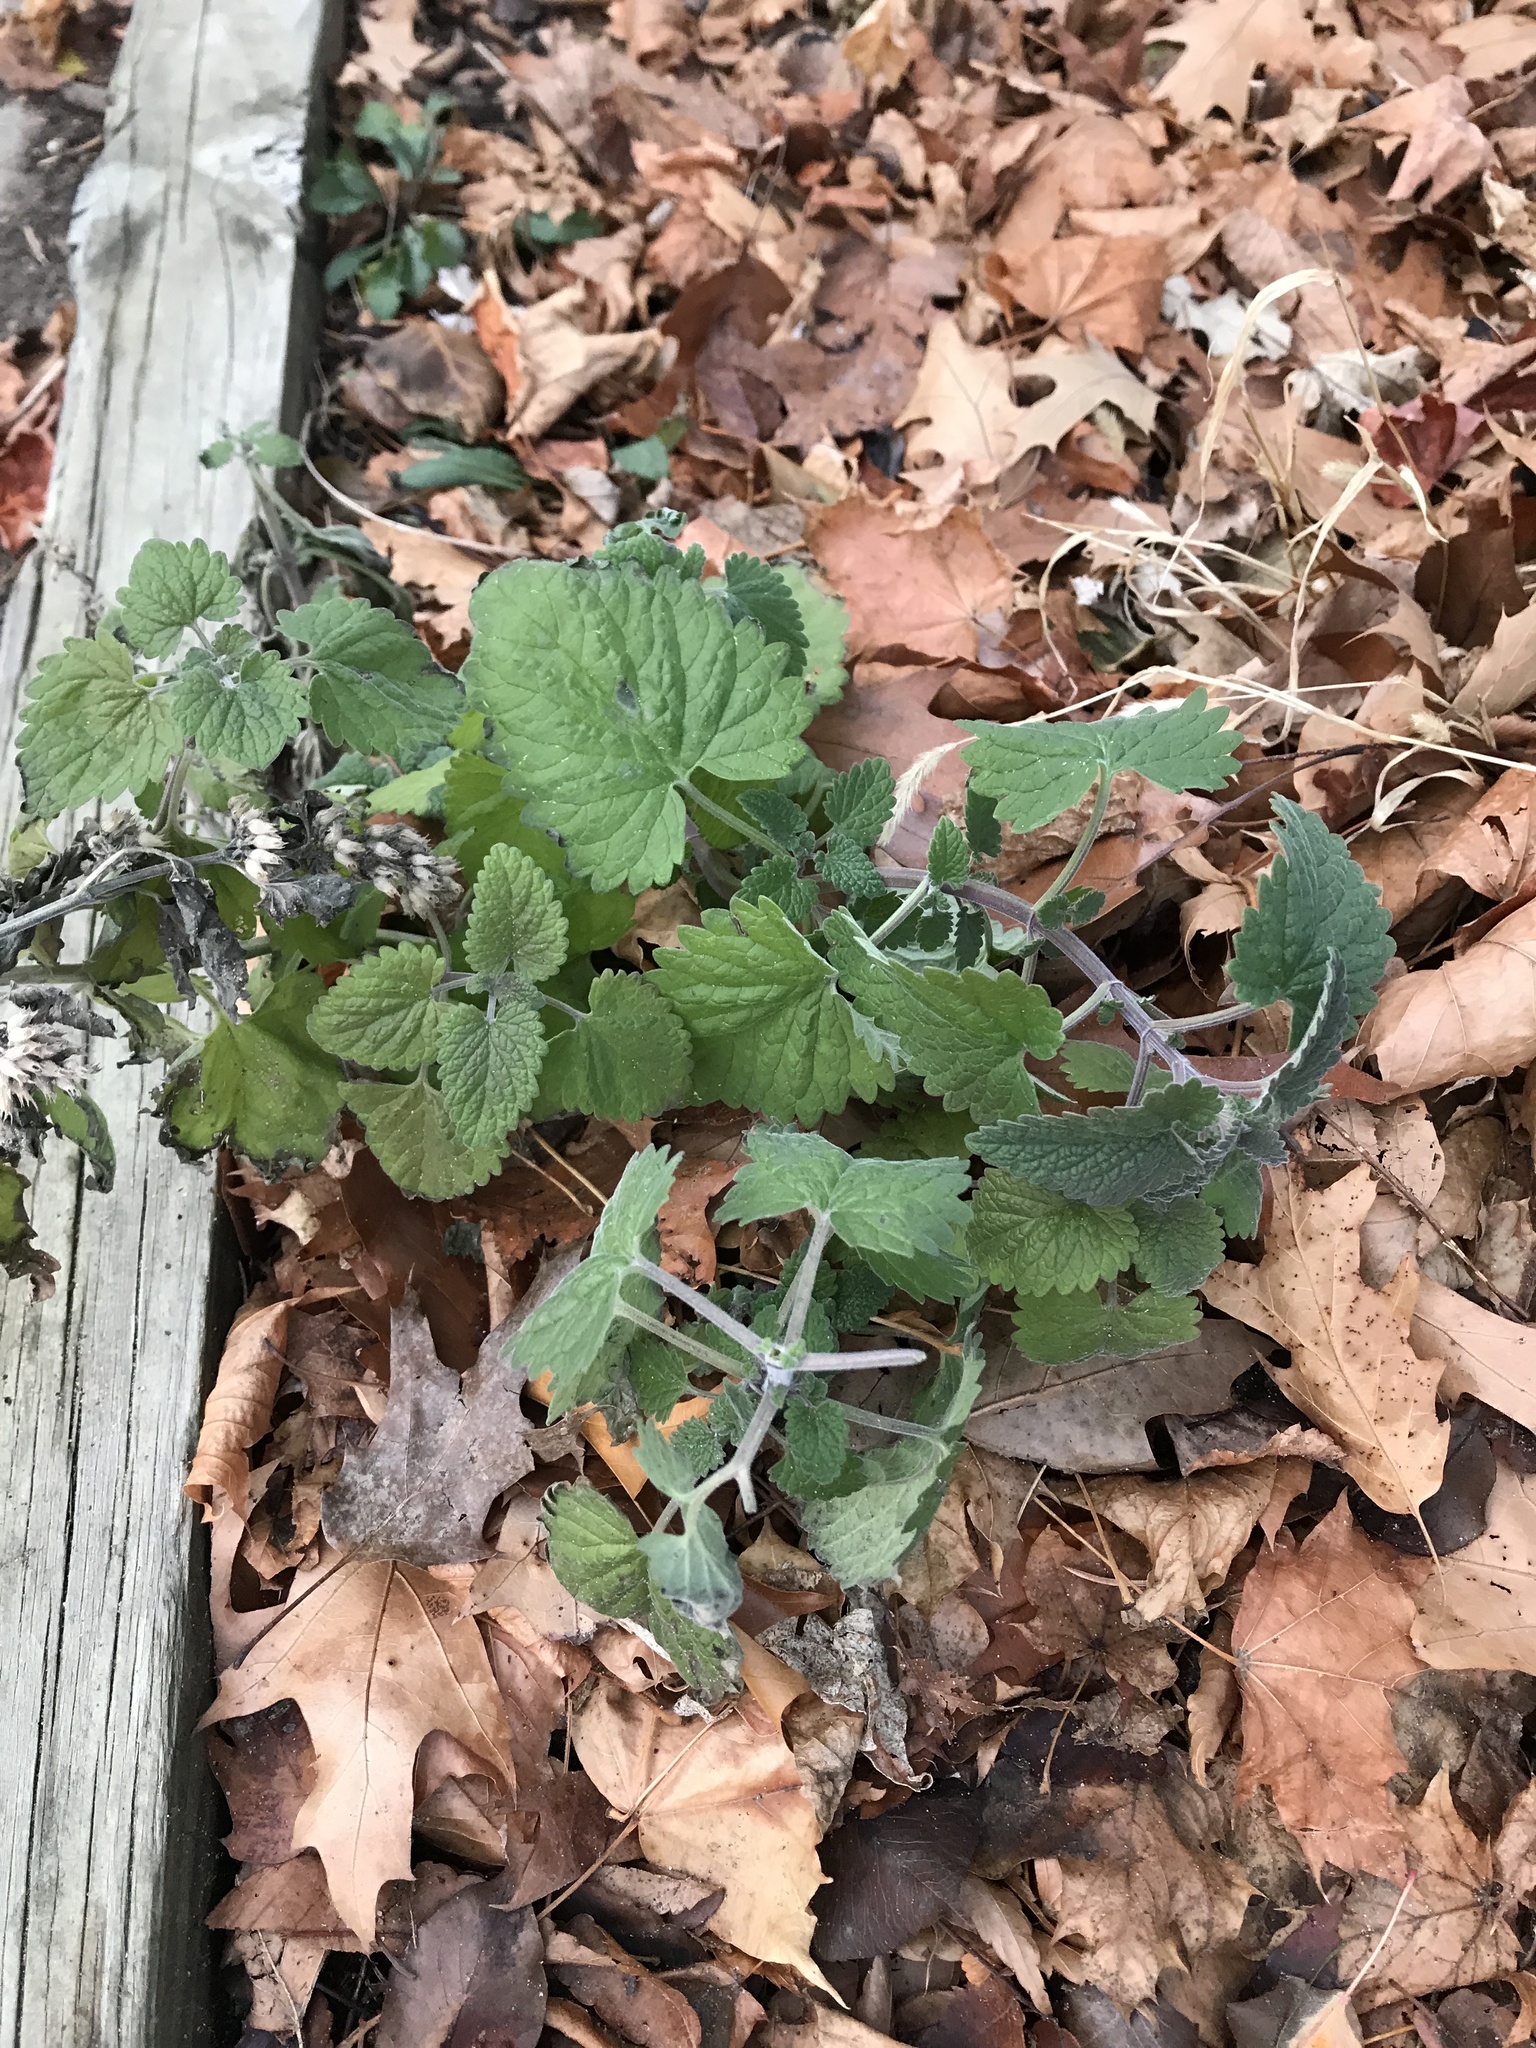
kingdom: Plantae
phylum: Tracheophyta
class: Magnoliopsida
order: Lamiales
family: Lamiaceae
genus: Nepeta
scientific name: Nepeta cataria
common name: Catnip
